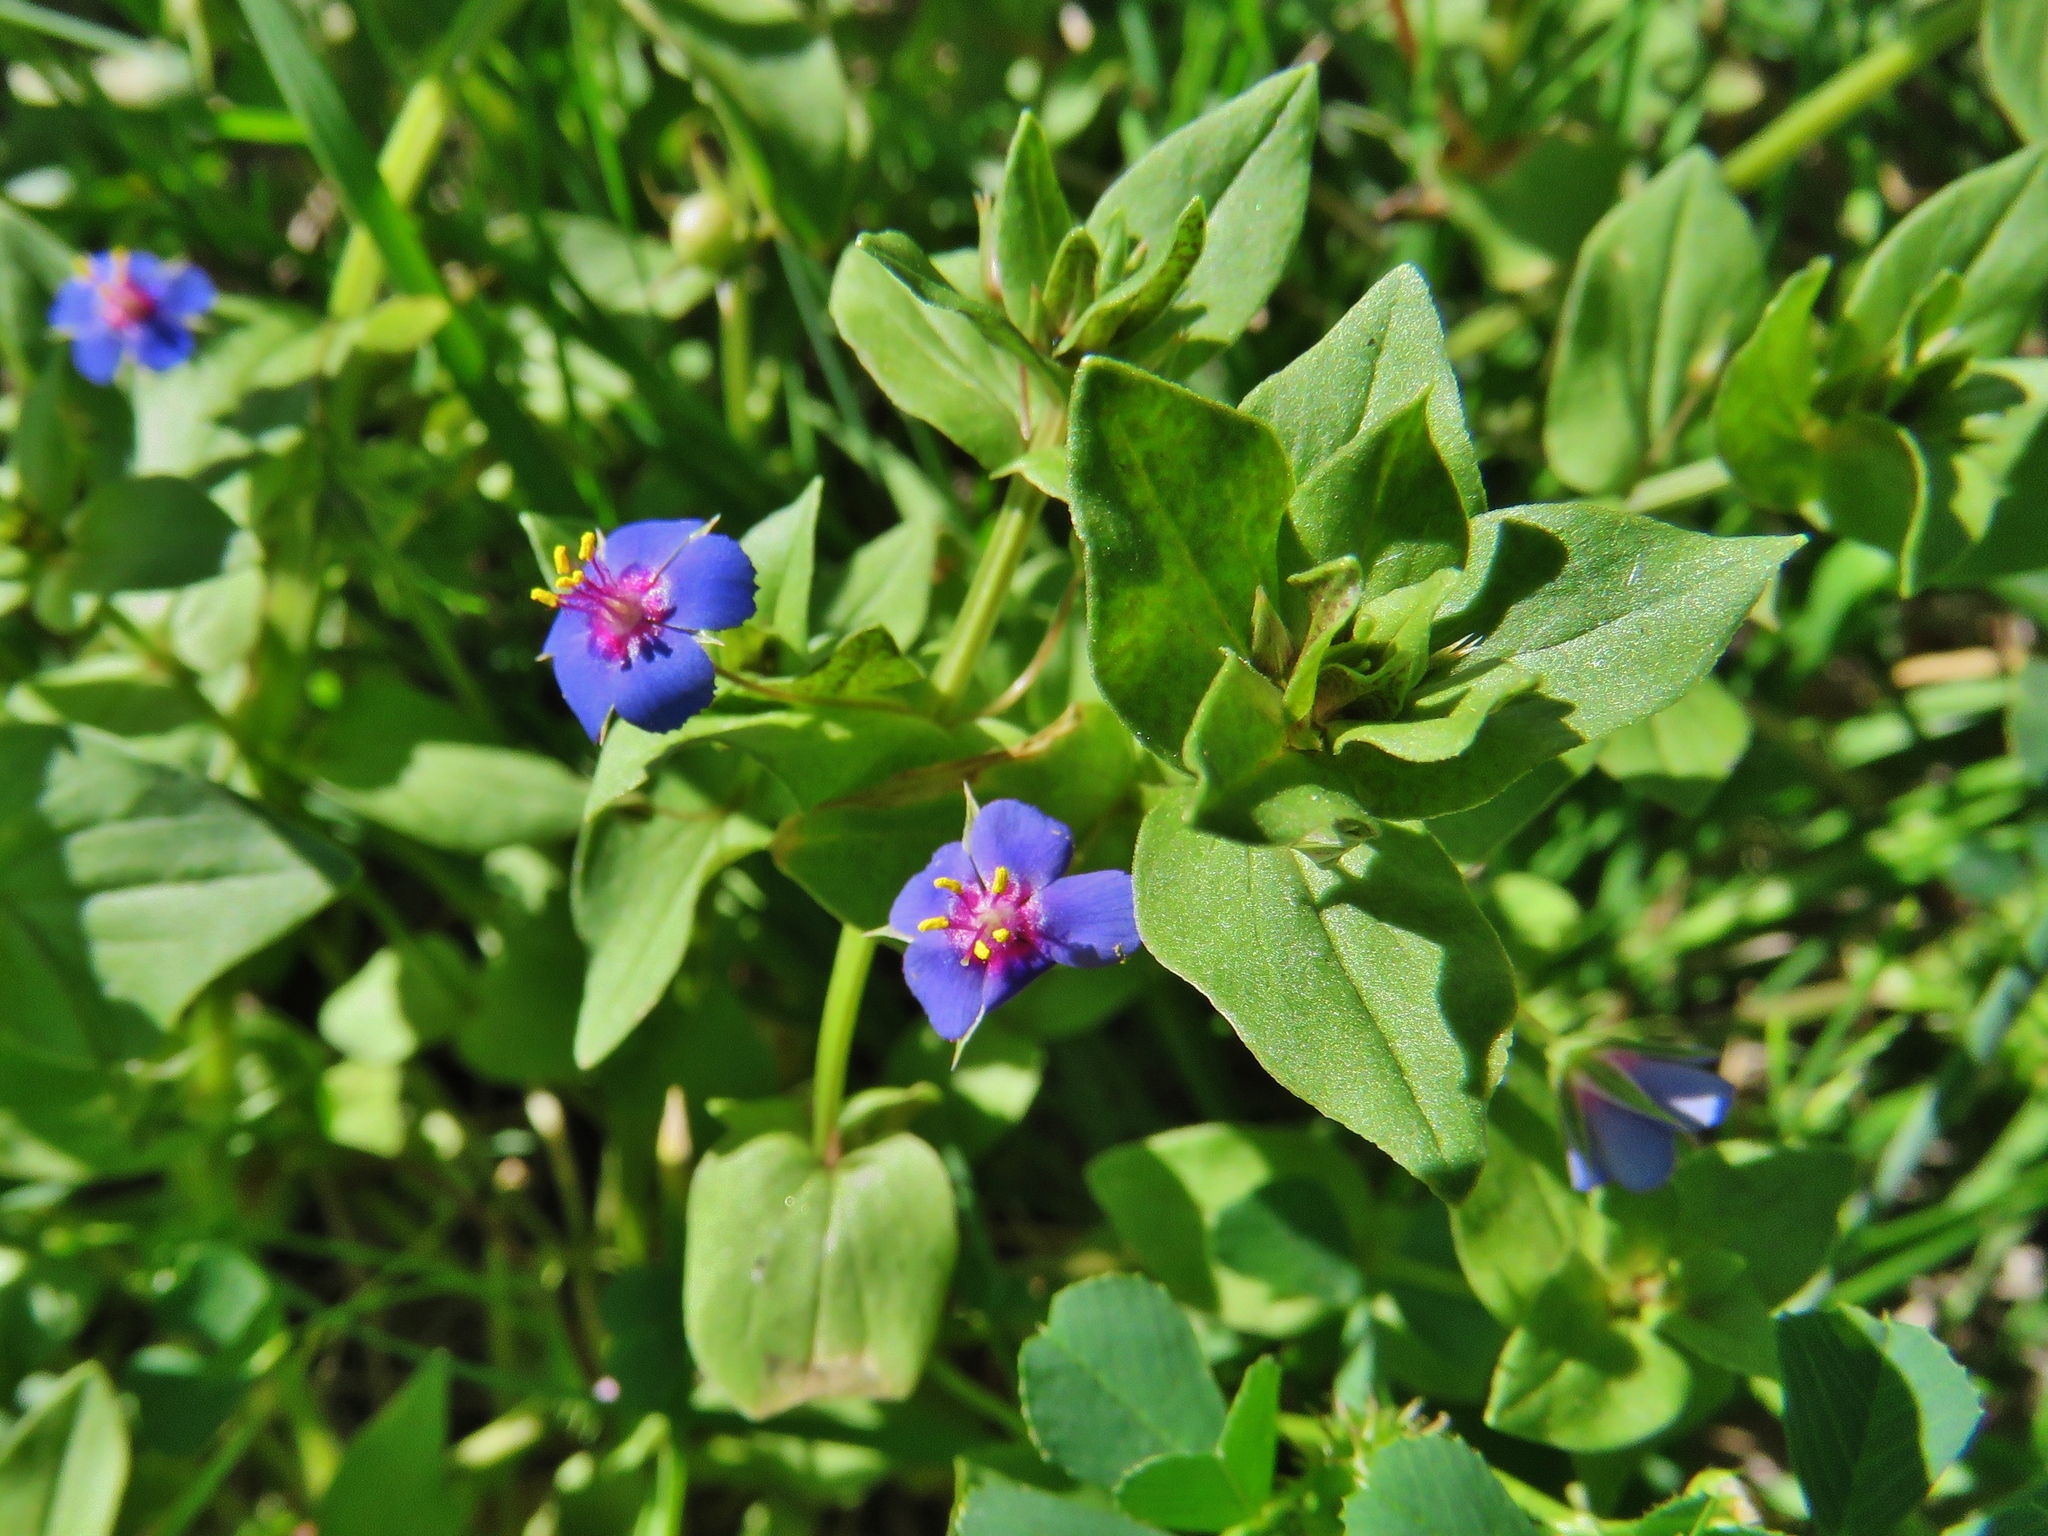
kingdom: Plantae
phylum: Tracheophyta
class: Magnoliopsida
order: Ericales
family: Primulaceae
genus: Lysimachia
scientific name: Lysimachia arvensis
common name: Scarlet pimpernel
